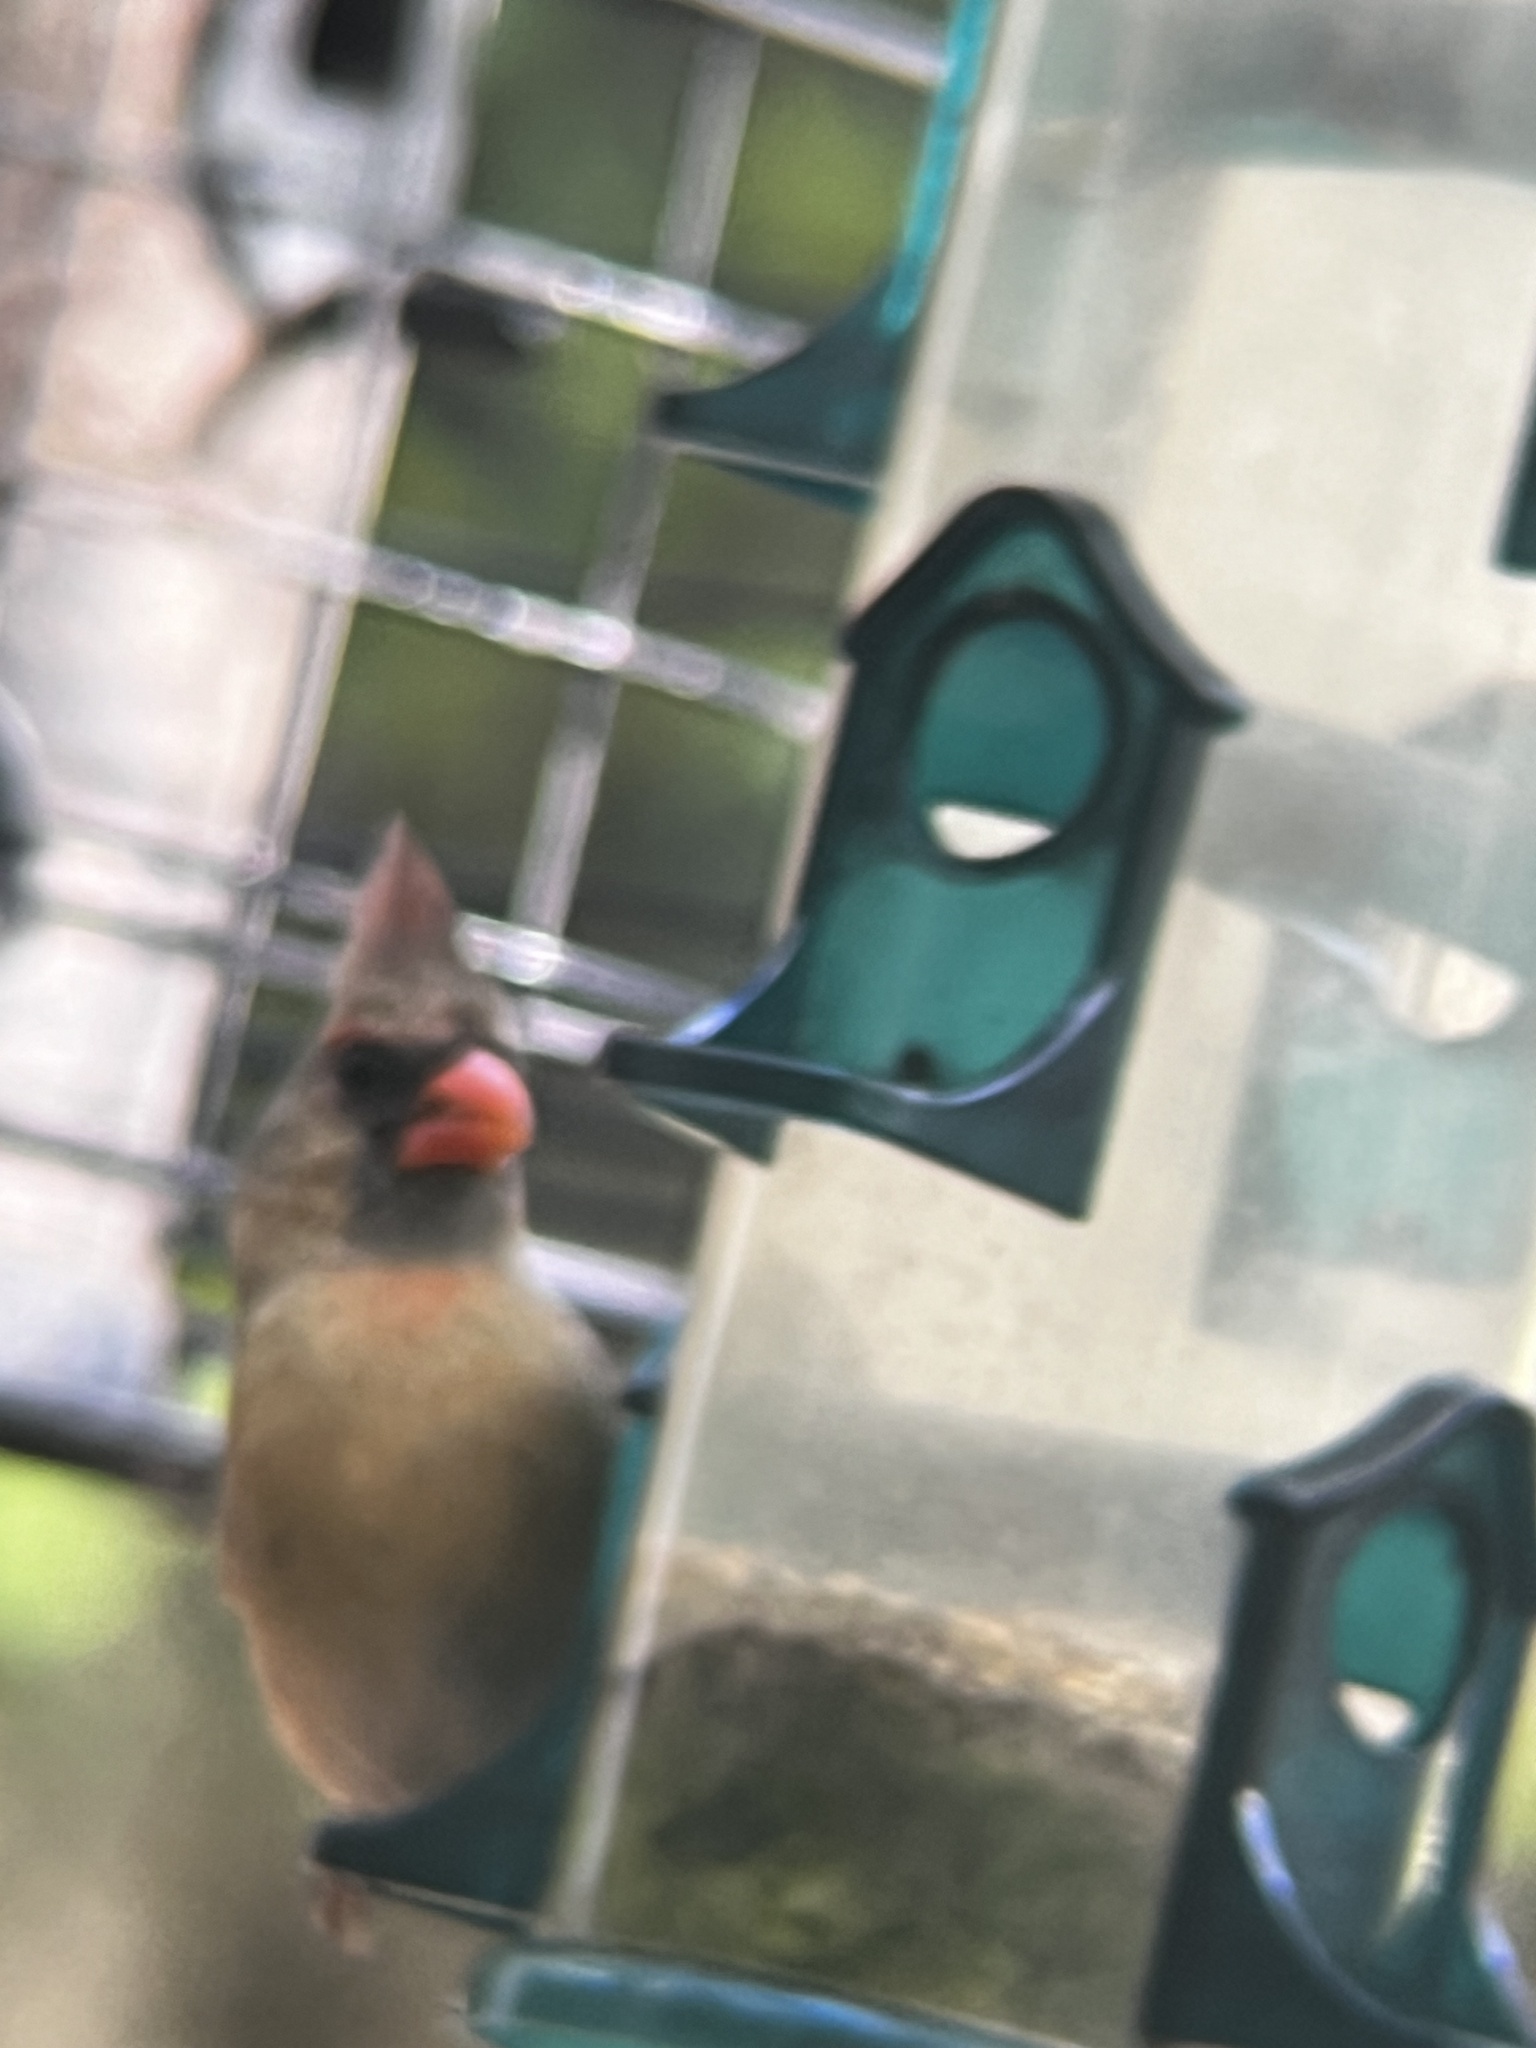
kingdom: Animalia
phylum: Chordata
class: Aves
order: Passeriformes
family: Cardinalidae
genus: Cardinalis
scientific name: Cardinalis cardinalis
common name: Northern cardinal
